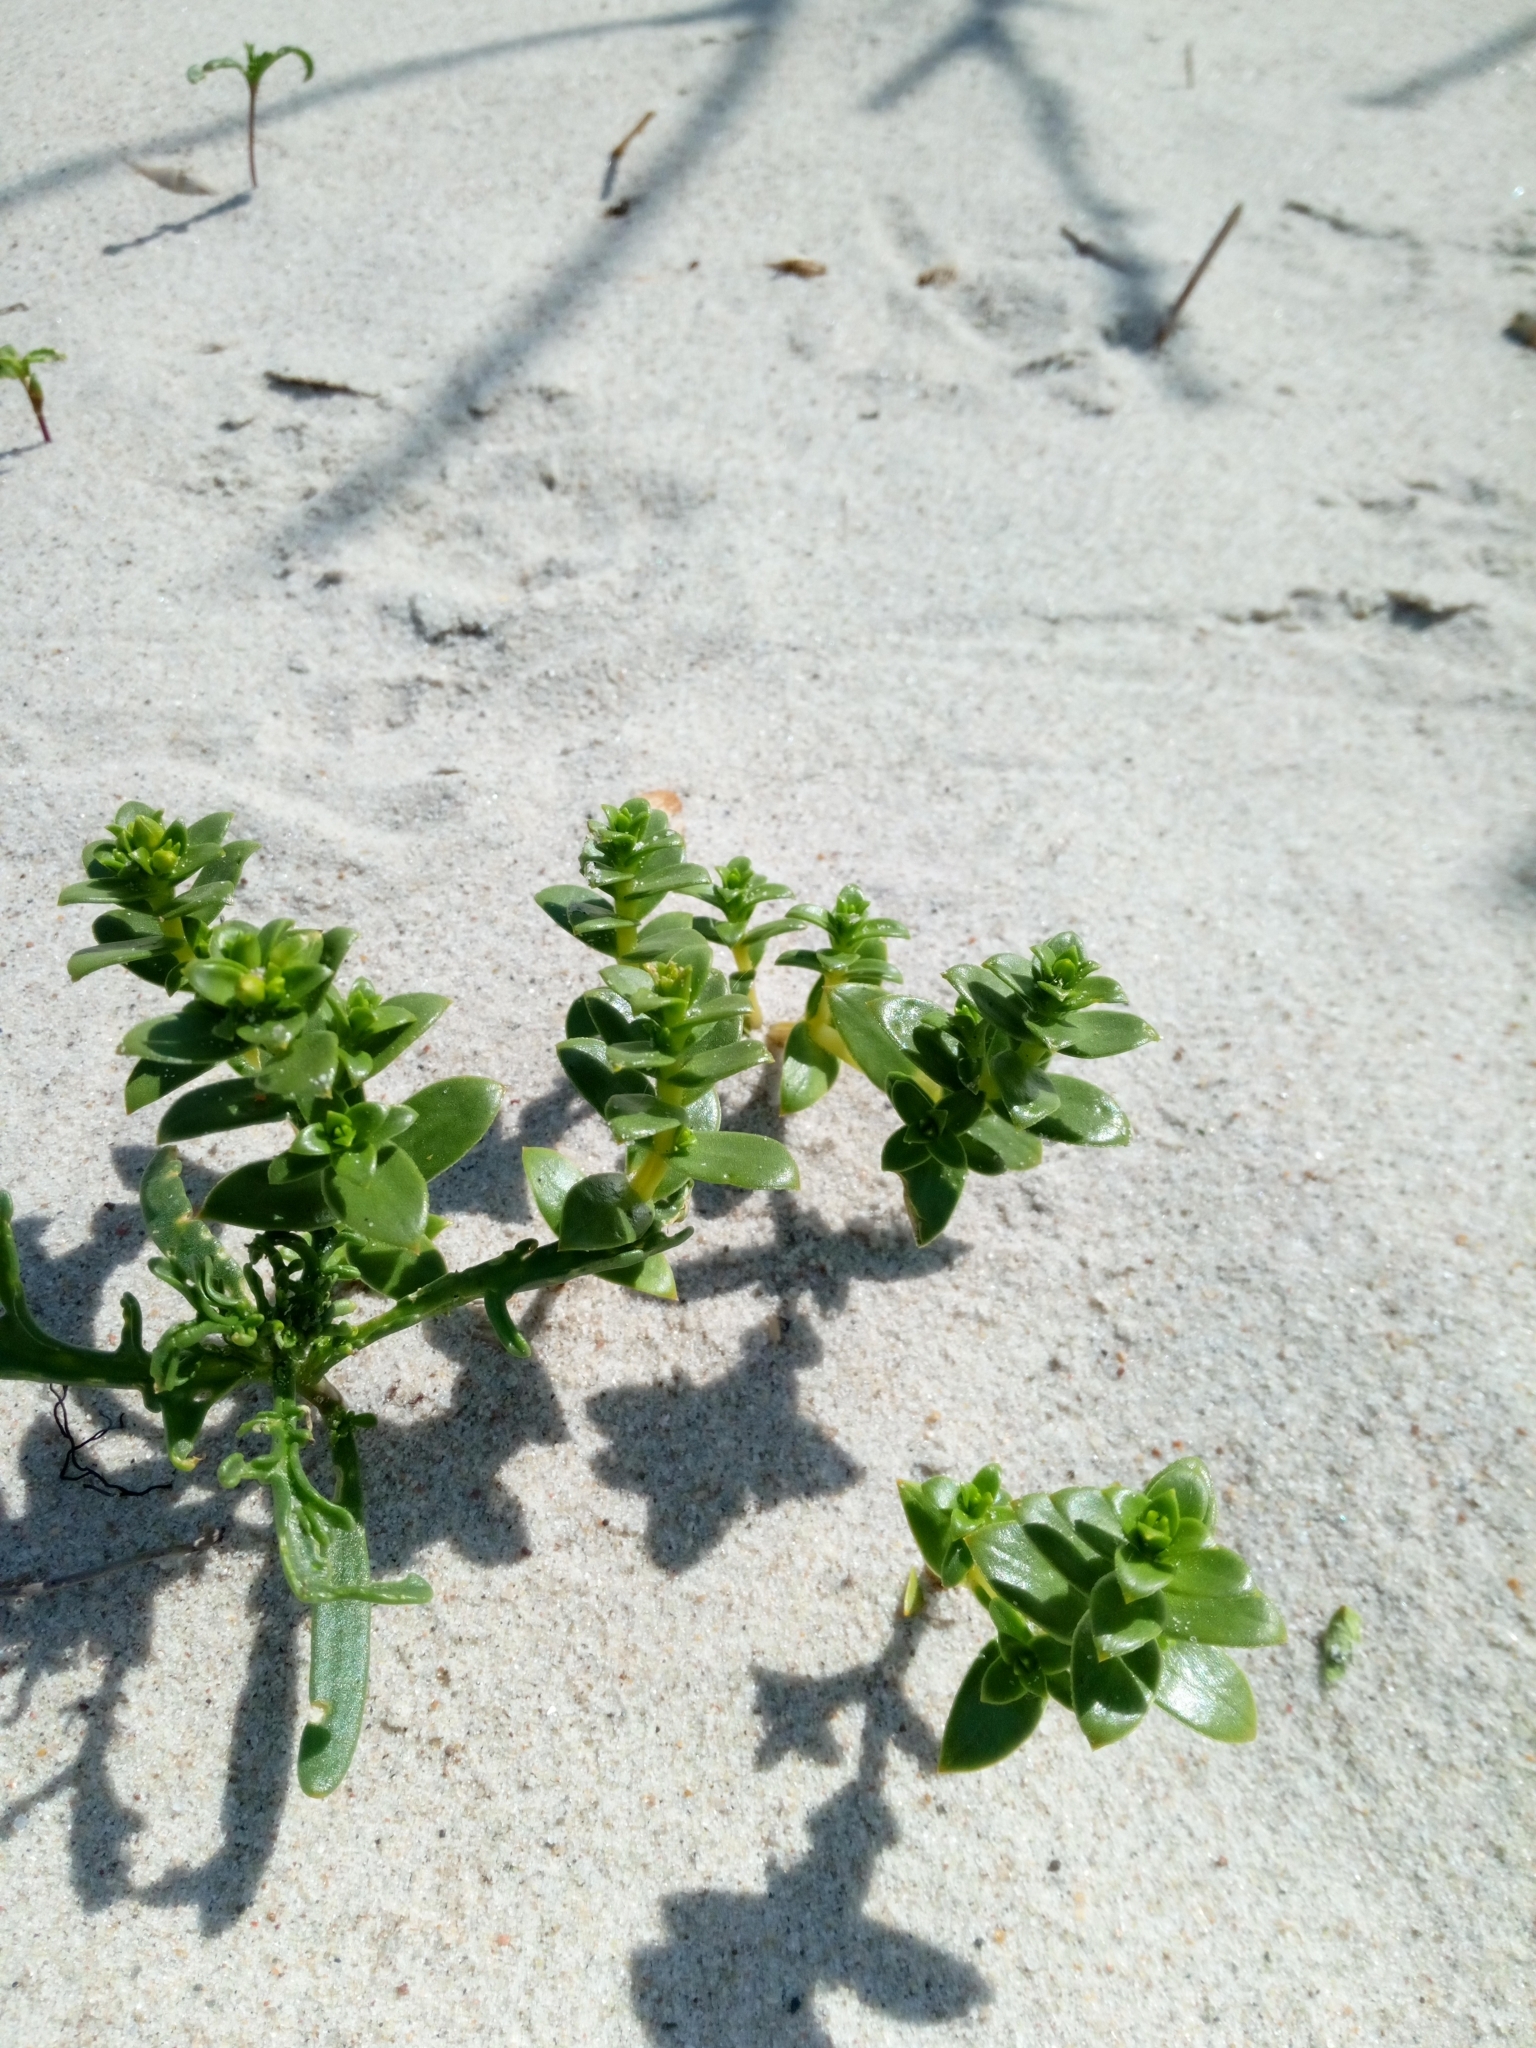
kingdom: Plantae
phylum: Tracheophyta
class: Magnoliopsida
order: Caryophyllales
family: Caryophyllaceae
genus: Honckenya
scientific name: Honckenya peploides
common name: Sea sandwort
